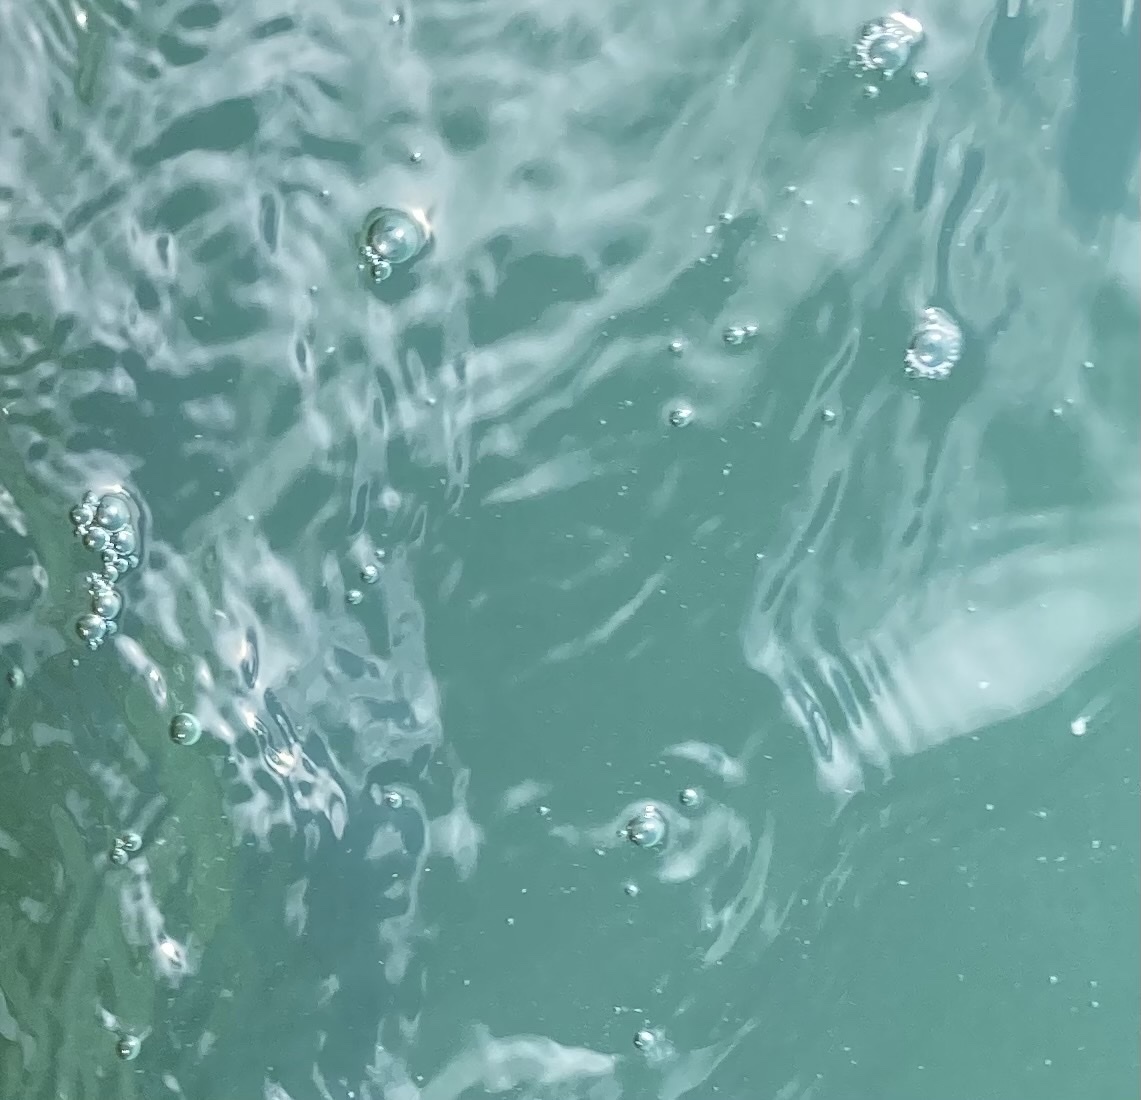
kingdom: Animalia
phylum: Ctenophora
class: Tentaculata
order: Lobata
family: Bolinopsidae
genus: Mnemiopsis
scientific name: Mnemiopsis leidyi
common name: American comb jelly
